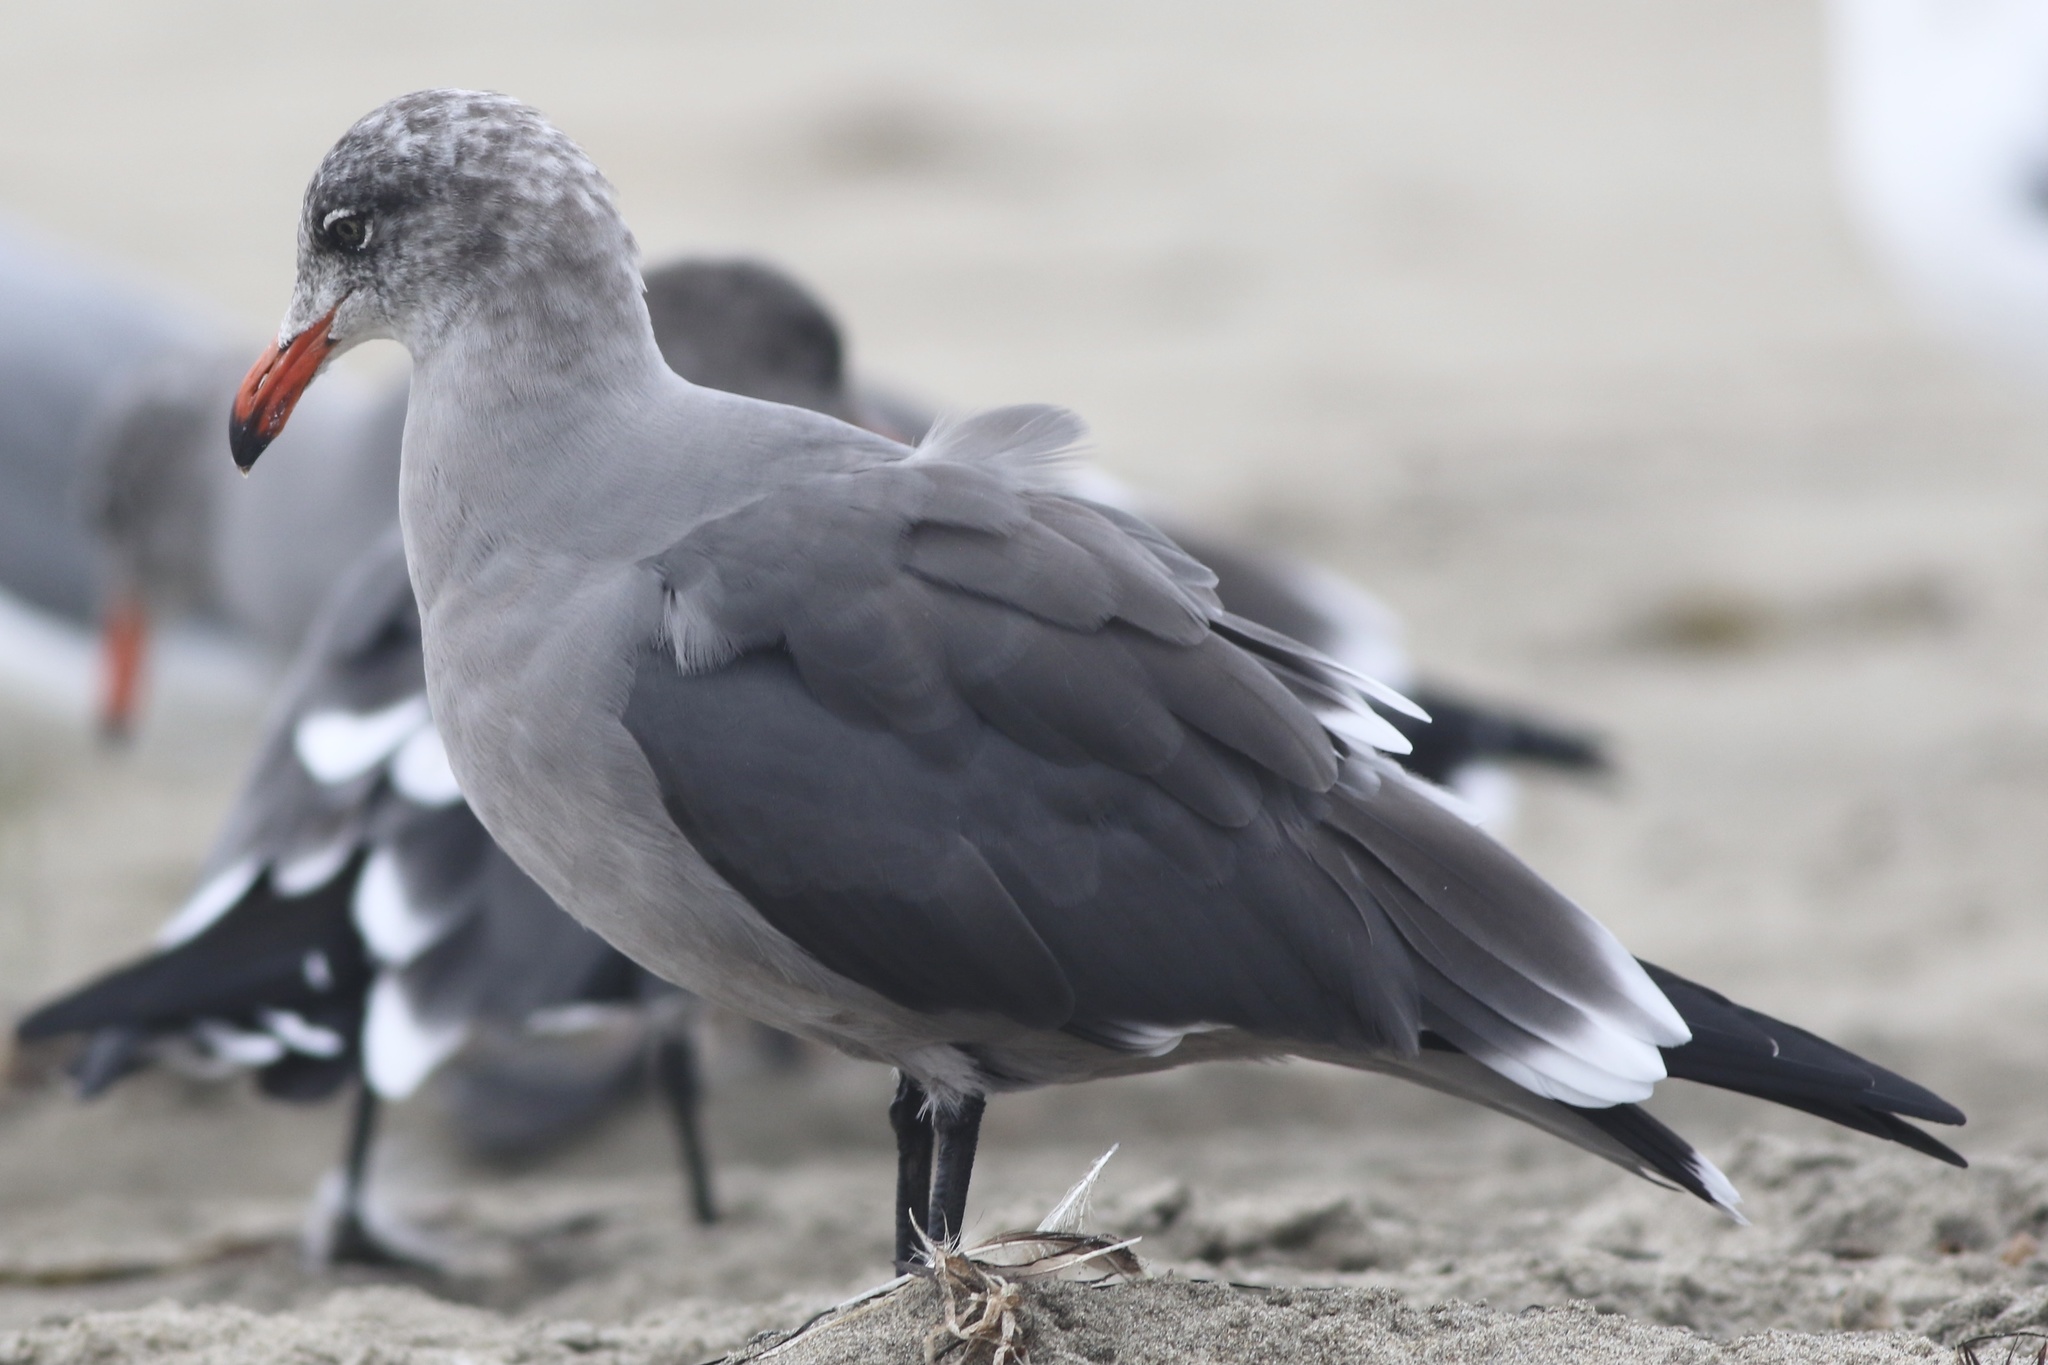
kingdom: Animalia
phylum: Chordata
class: Aves
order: Charadriiformes
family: Laridae
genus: Larus
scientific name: Larus heermanni
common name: Heermann's gull
